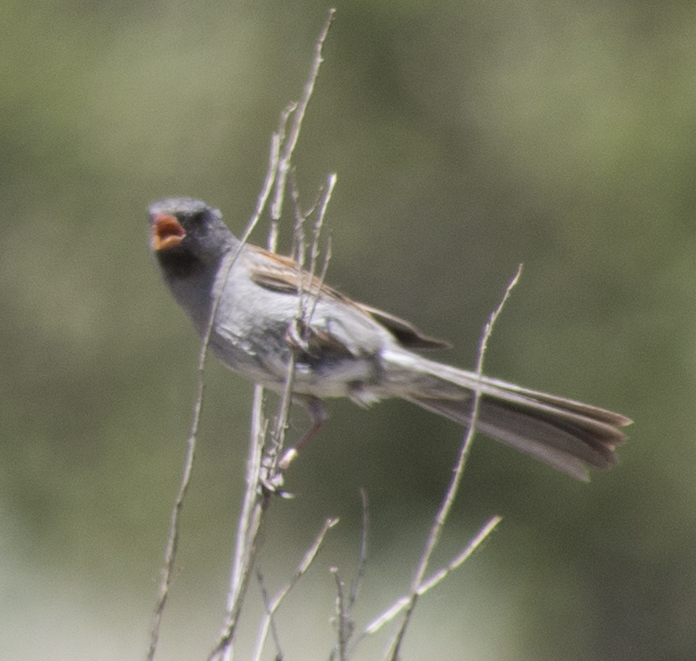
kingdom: Animalia
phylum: Chordata
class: Aves
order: Passeriformes
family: Passerellidae
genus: Spizella
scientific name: Spizella atrogularis
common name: Black-chinned sparrow
